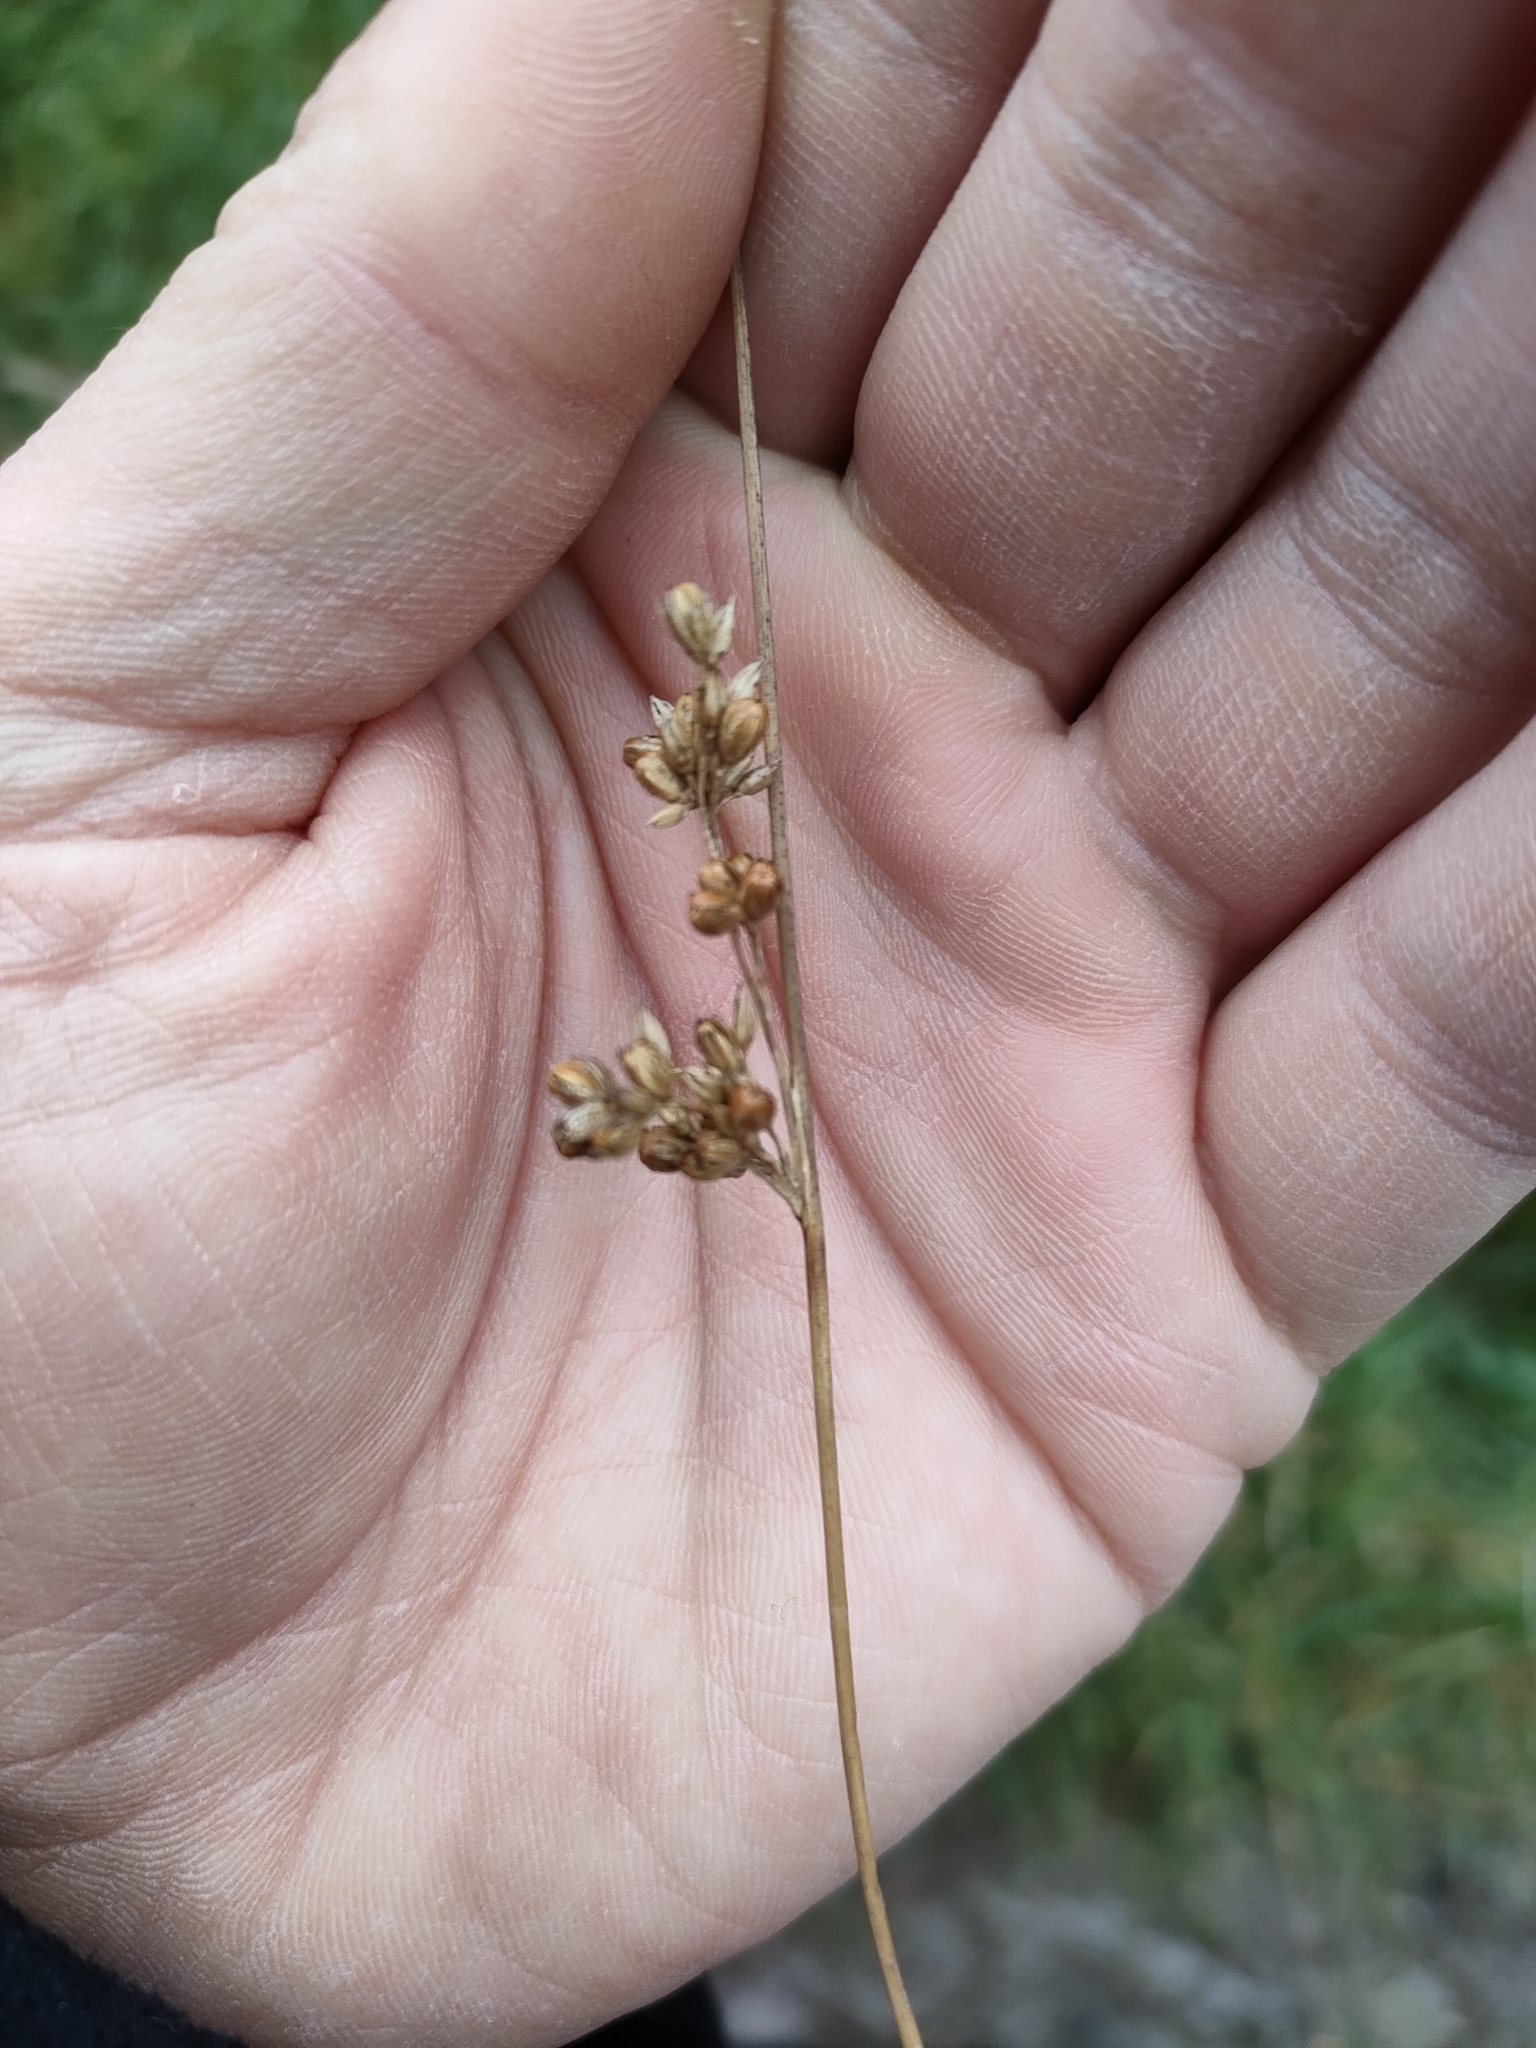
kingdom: Plantae
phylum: Tracheophyta
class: Liliopsida
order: Poales
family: Juncaceae
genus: Juncus
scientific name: Juncus distegus
